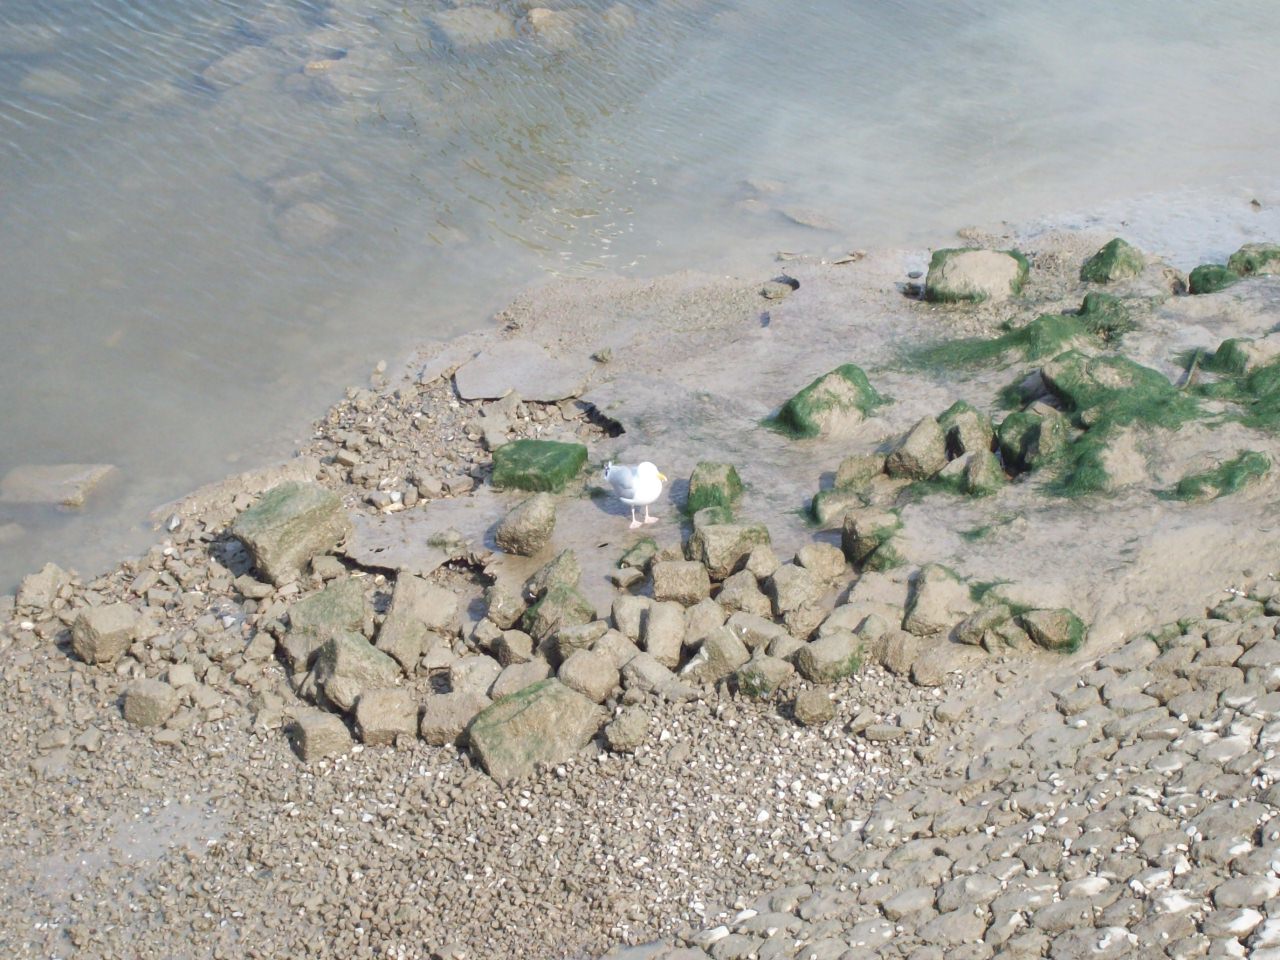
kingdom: Animalia
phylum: Chordata
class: Aves
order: Charadriiformes
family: Laridae
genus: Larus
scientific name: Larus argentatus
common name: Herring gull
